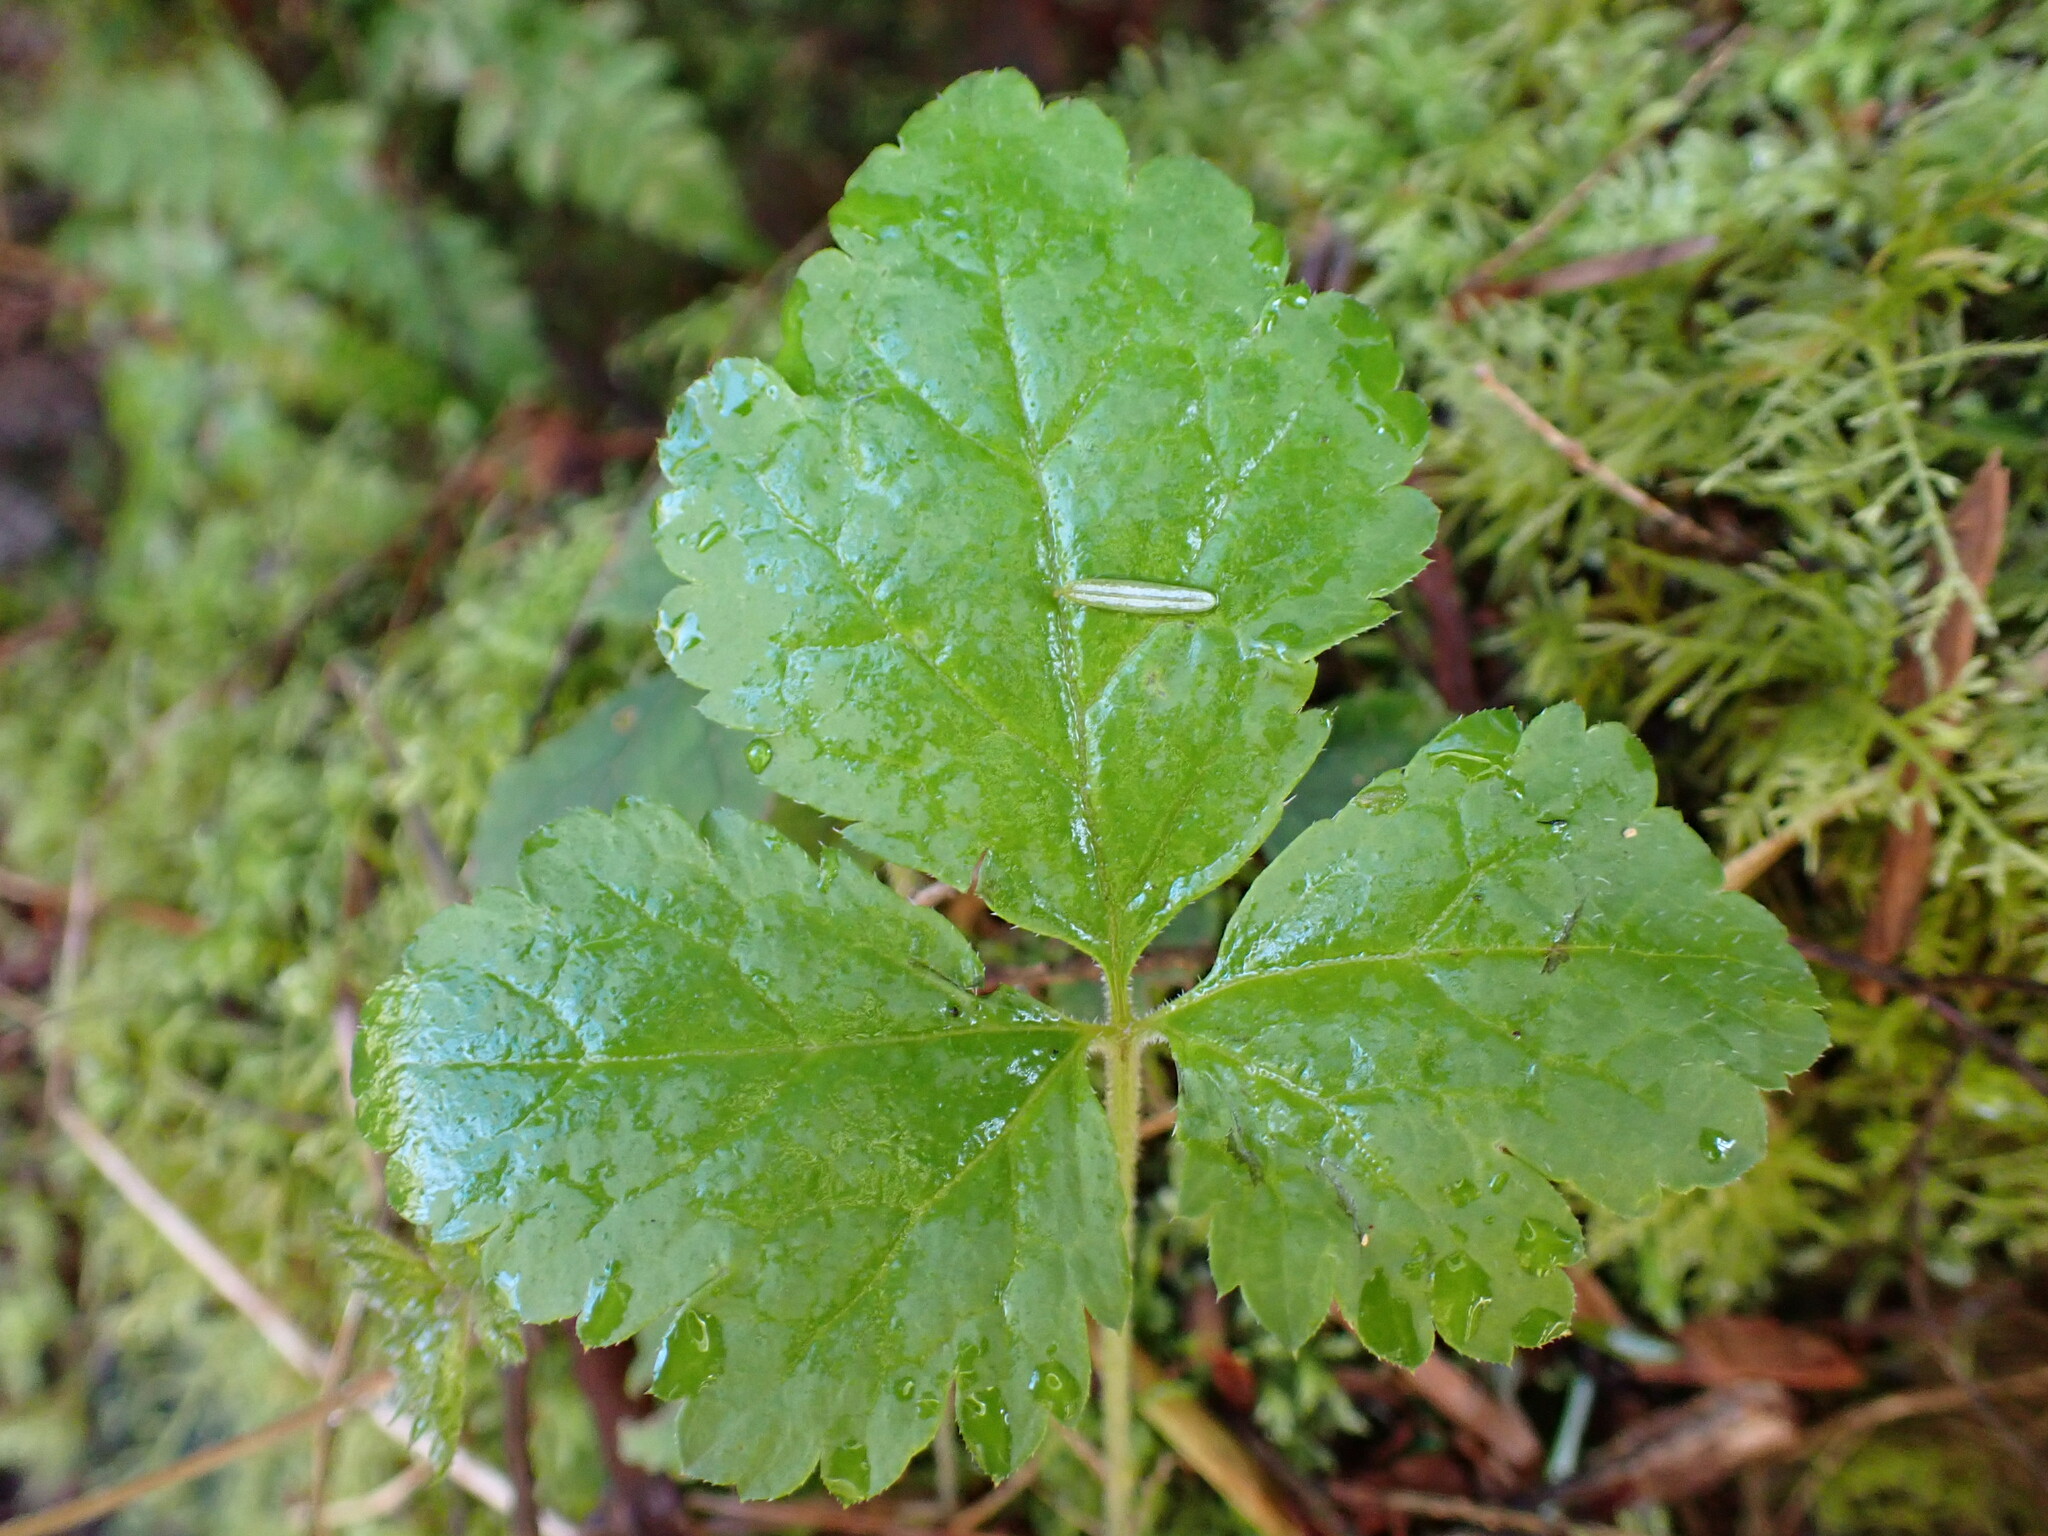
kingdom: Plantae
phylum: Tracheophyta
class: Magnoliopsida
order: Saxifragales
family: Saxifragaceae
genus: Tiarella
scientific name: Tiarella trifoliata
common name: Sugar-scoop
